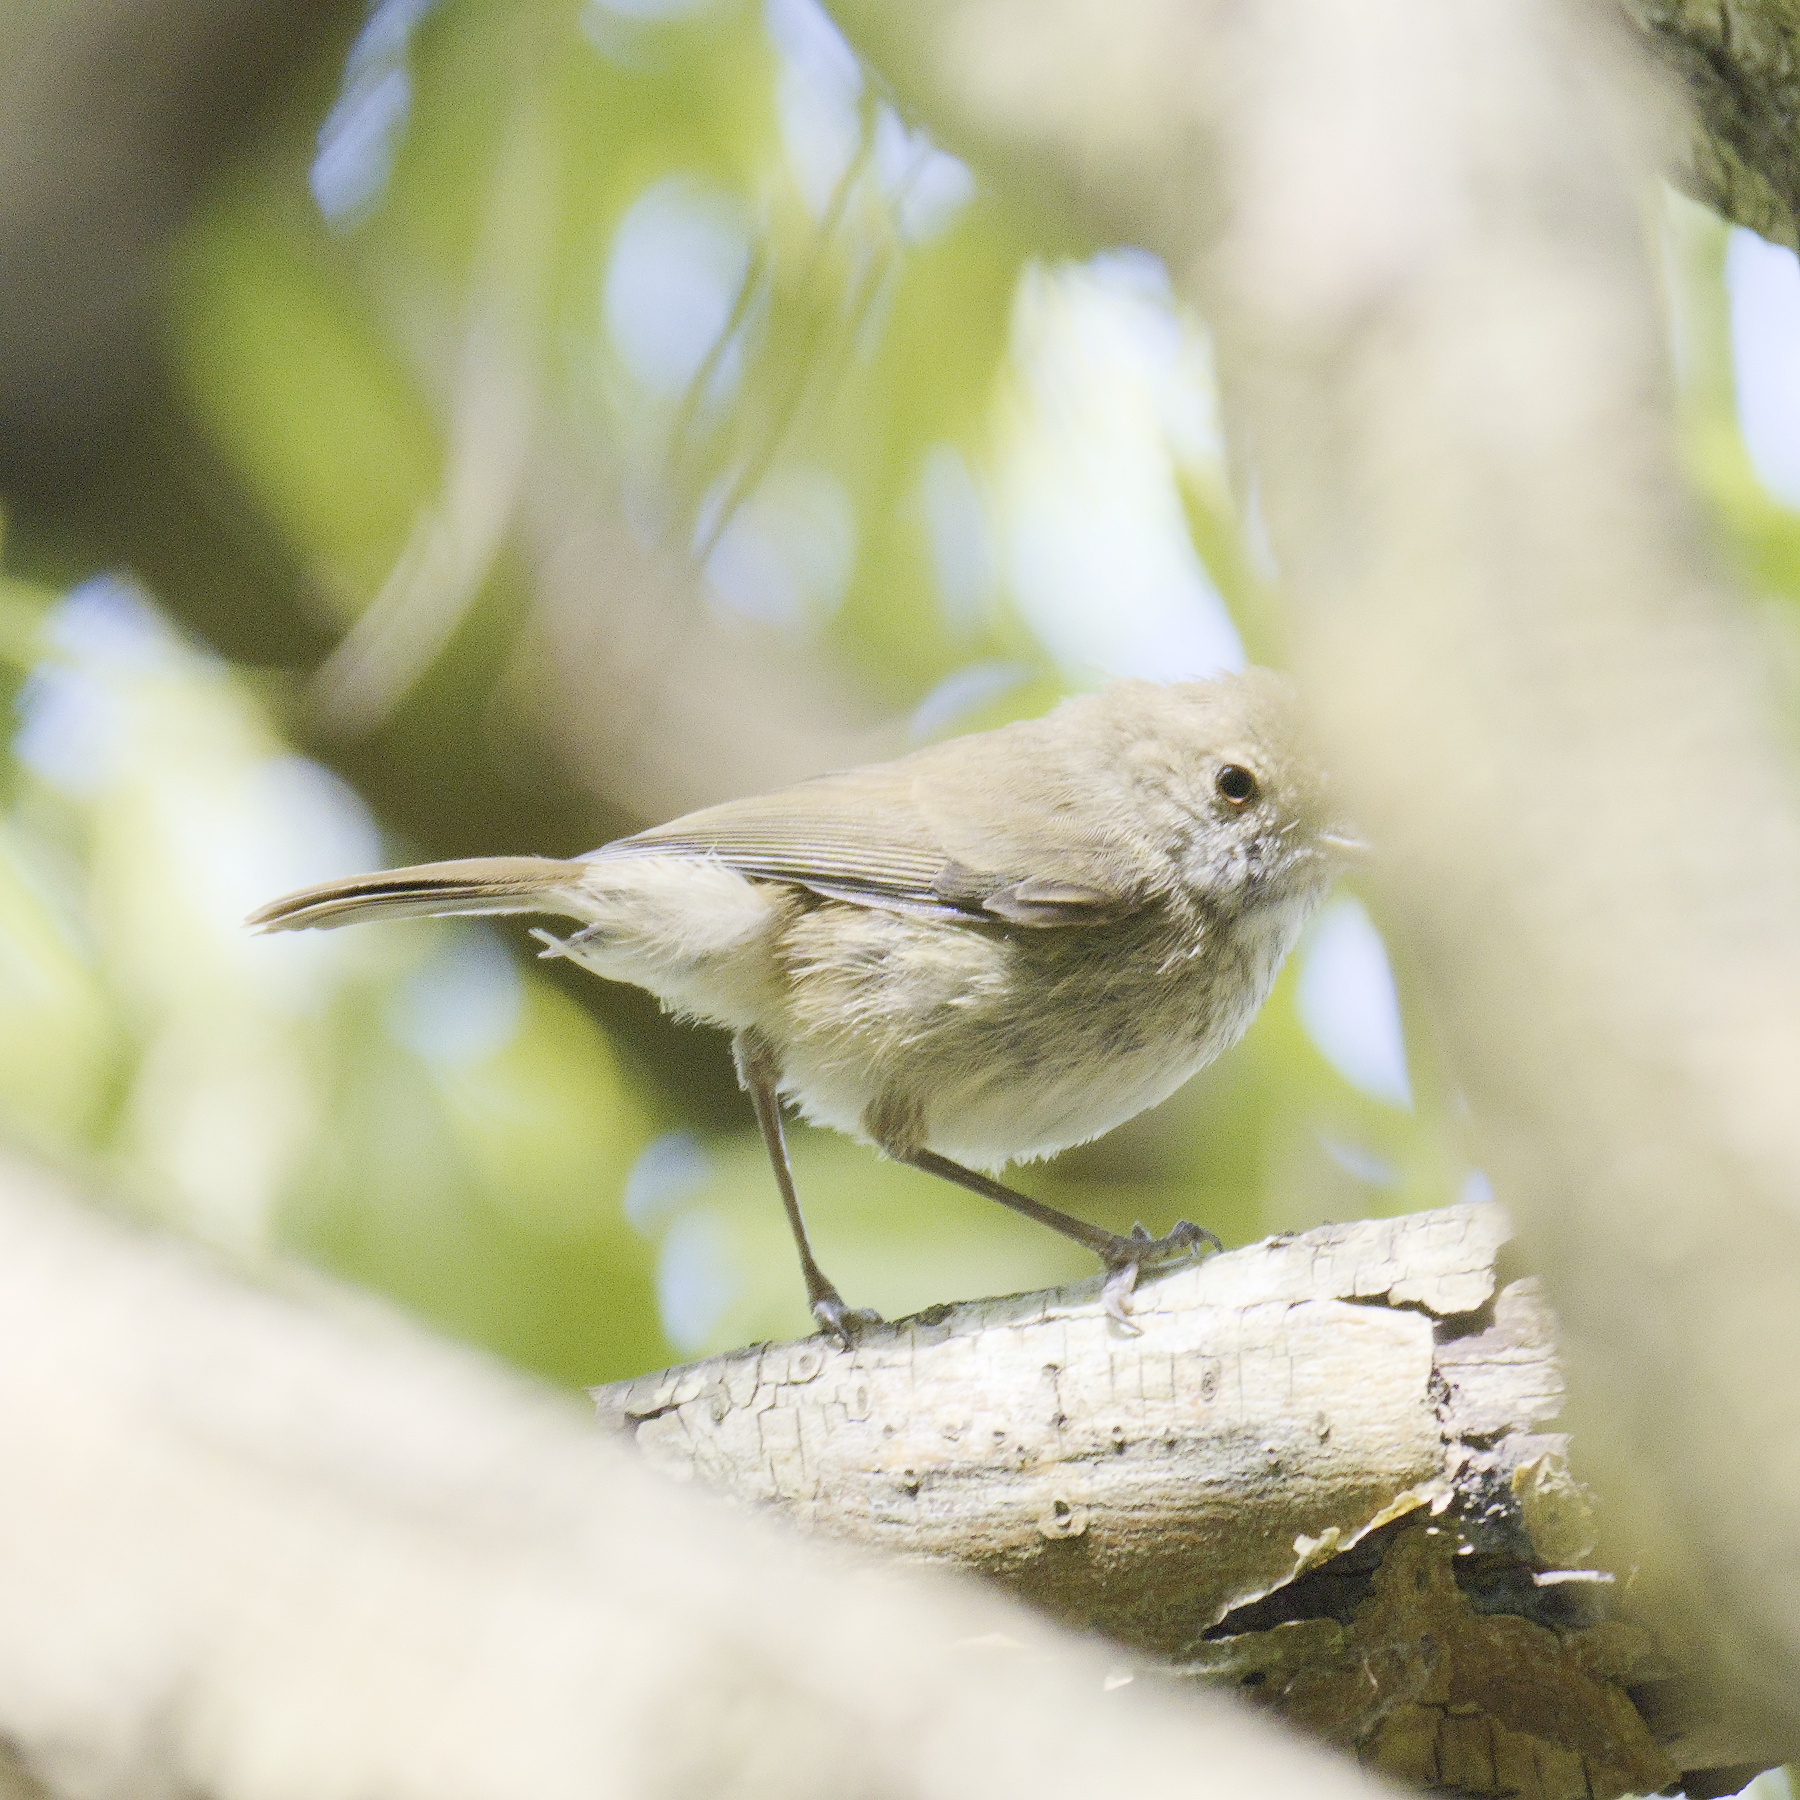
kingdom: Animalia
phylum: Chordata
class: Aves
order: Passeriformes
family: Acanthizidae
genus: Acanthiza
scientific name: Acanthiza pusilla
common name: Brown thornbill
